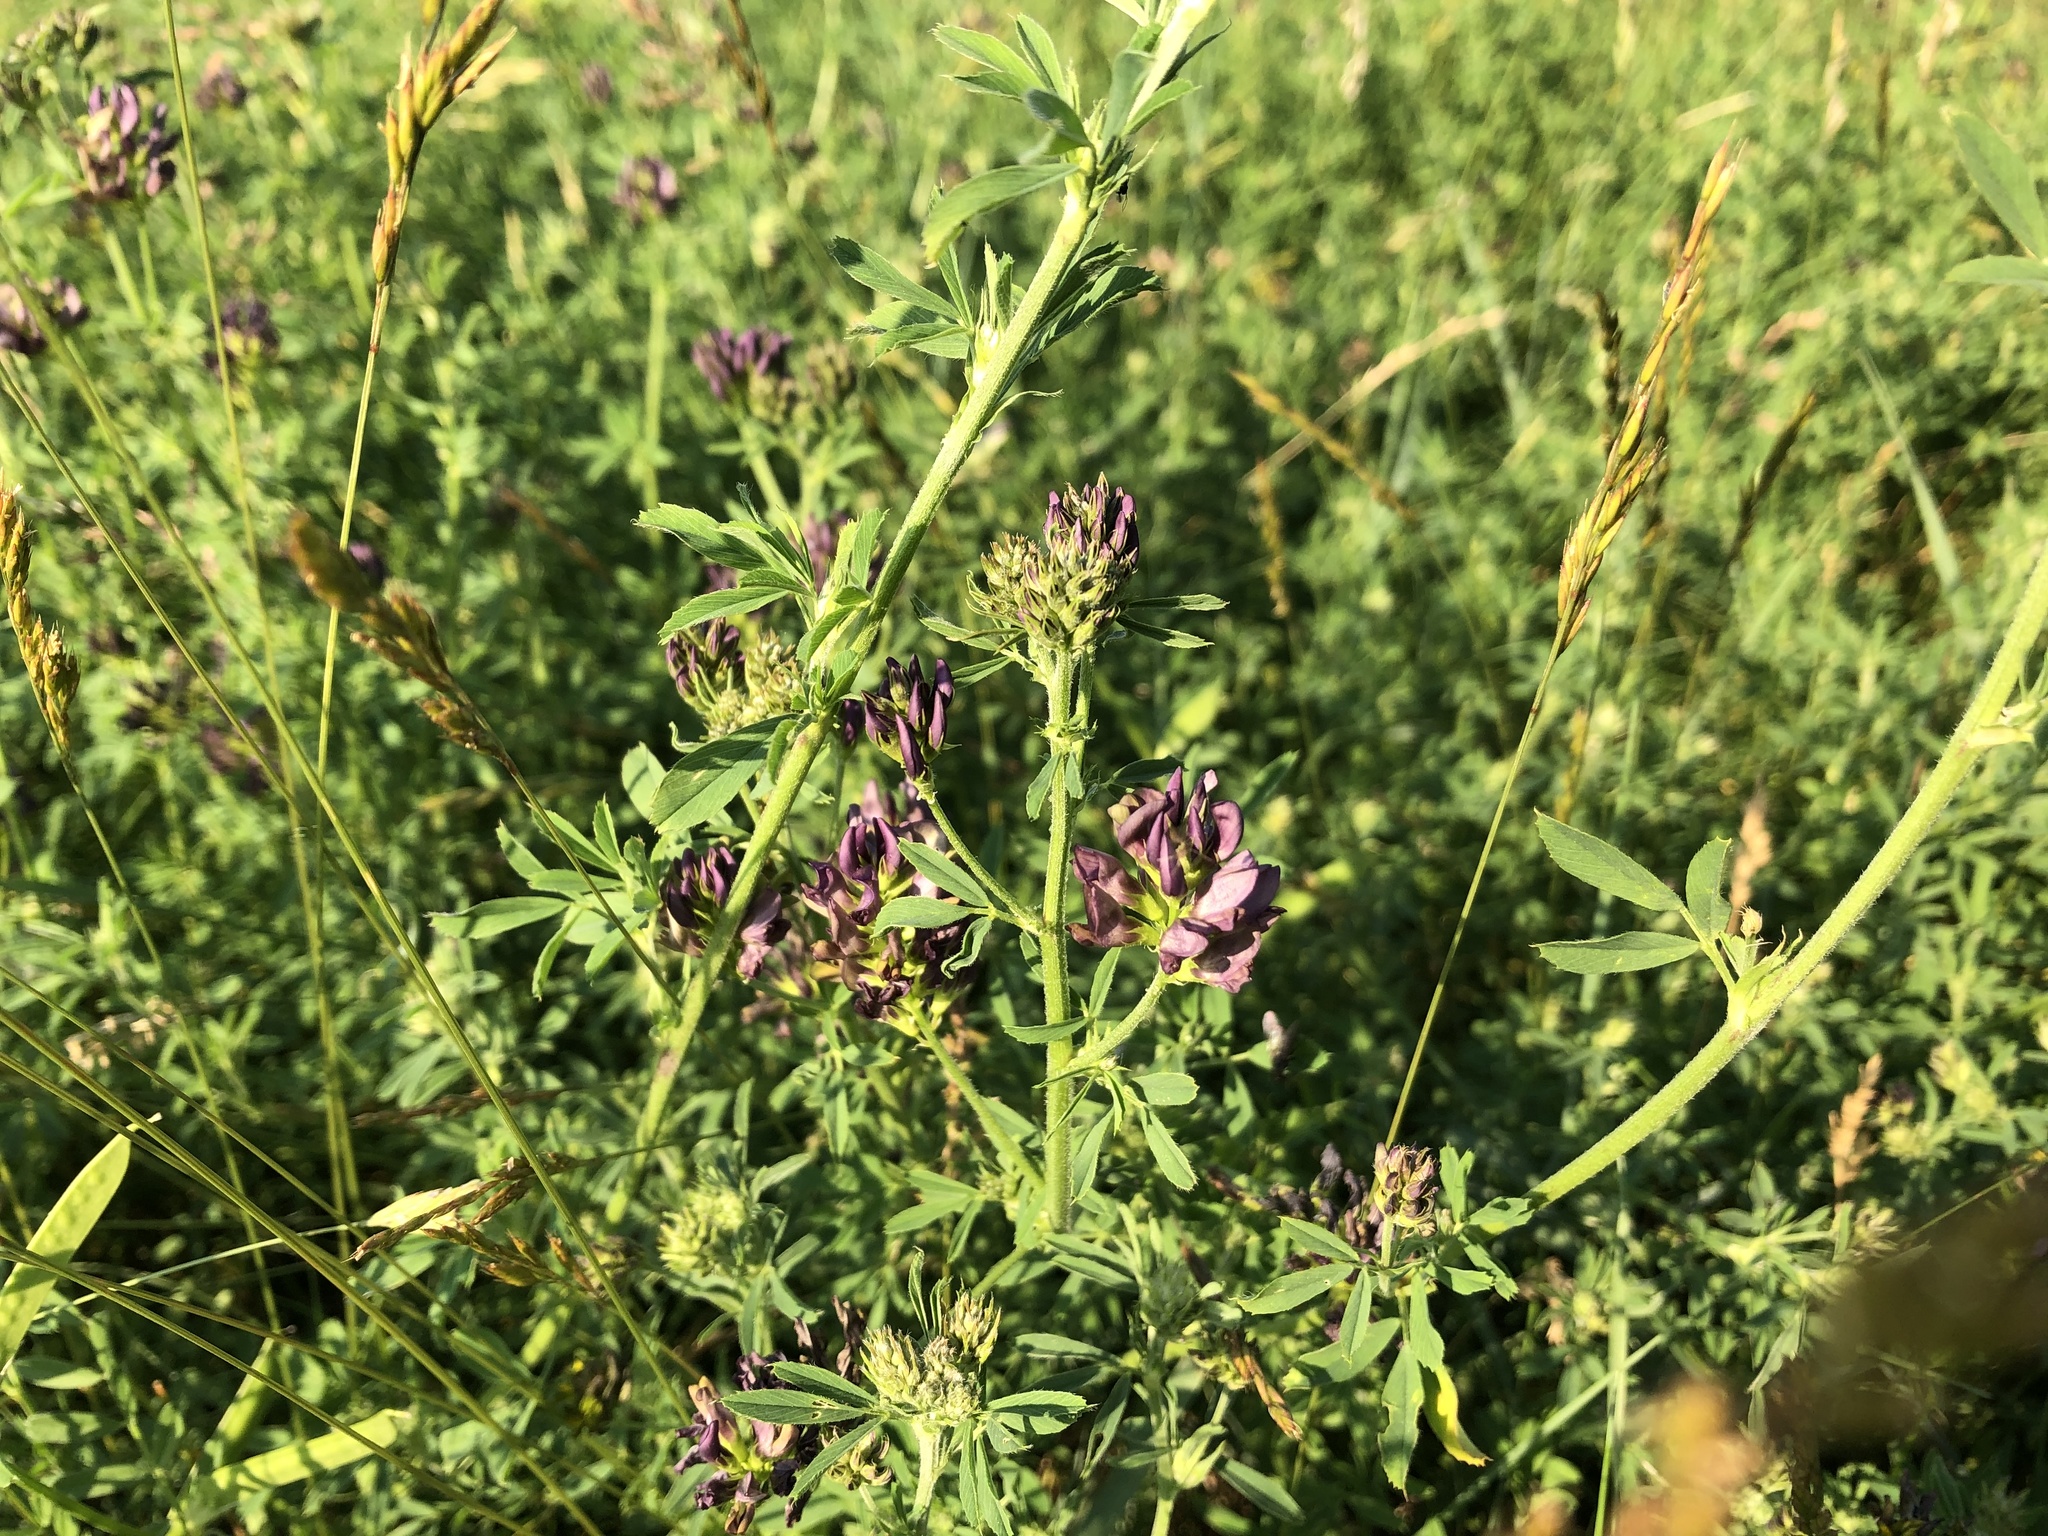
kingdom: Plantae
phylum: Tracheophyta
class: Magnoliopsida
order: Fabales
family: Fabaceae
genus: Medicago
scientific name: Medicago varia
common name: Sand lucerne
